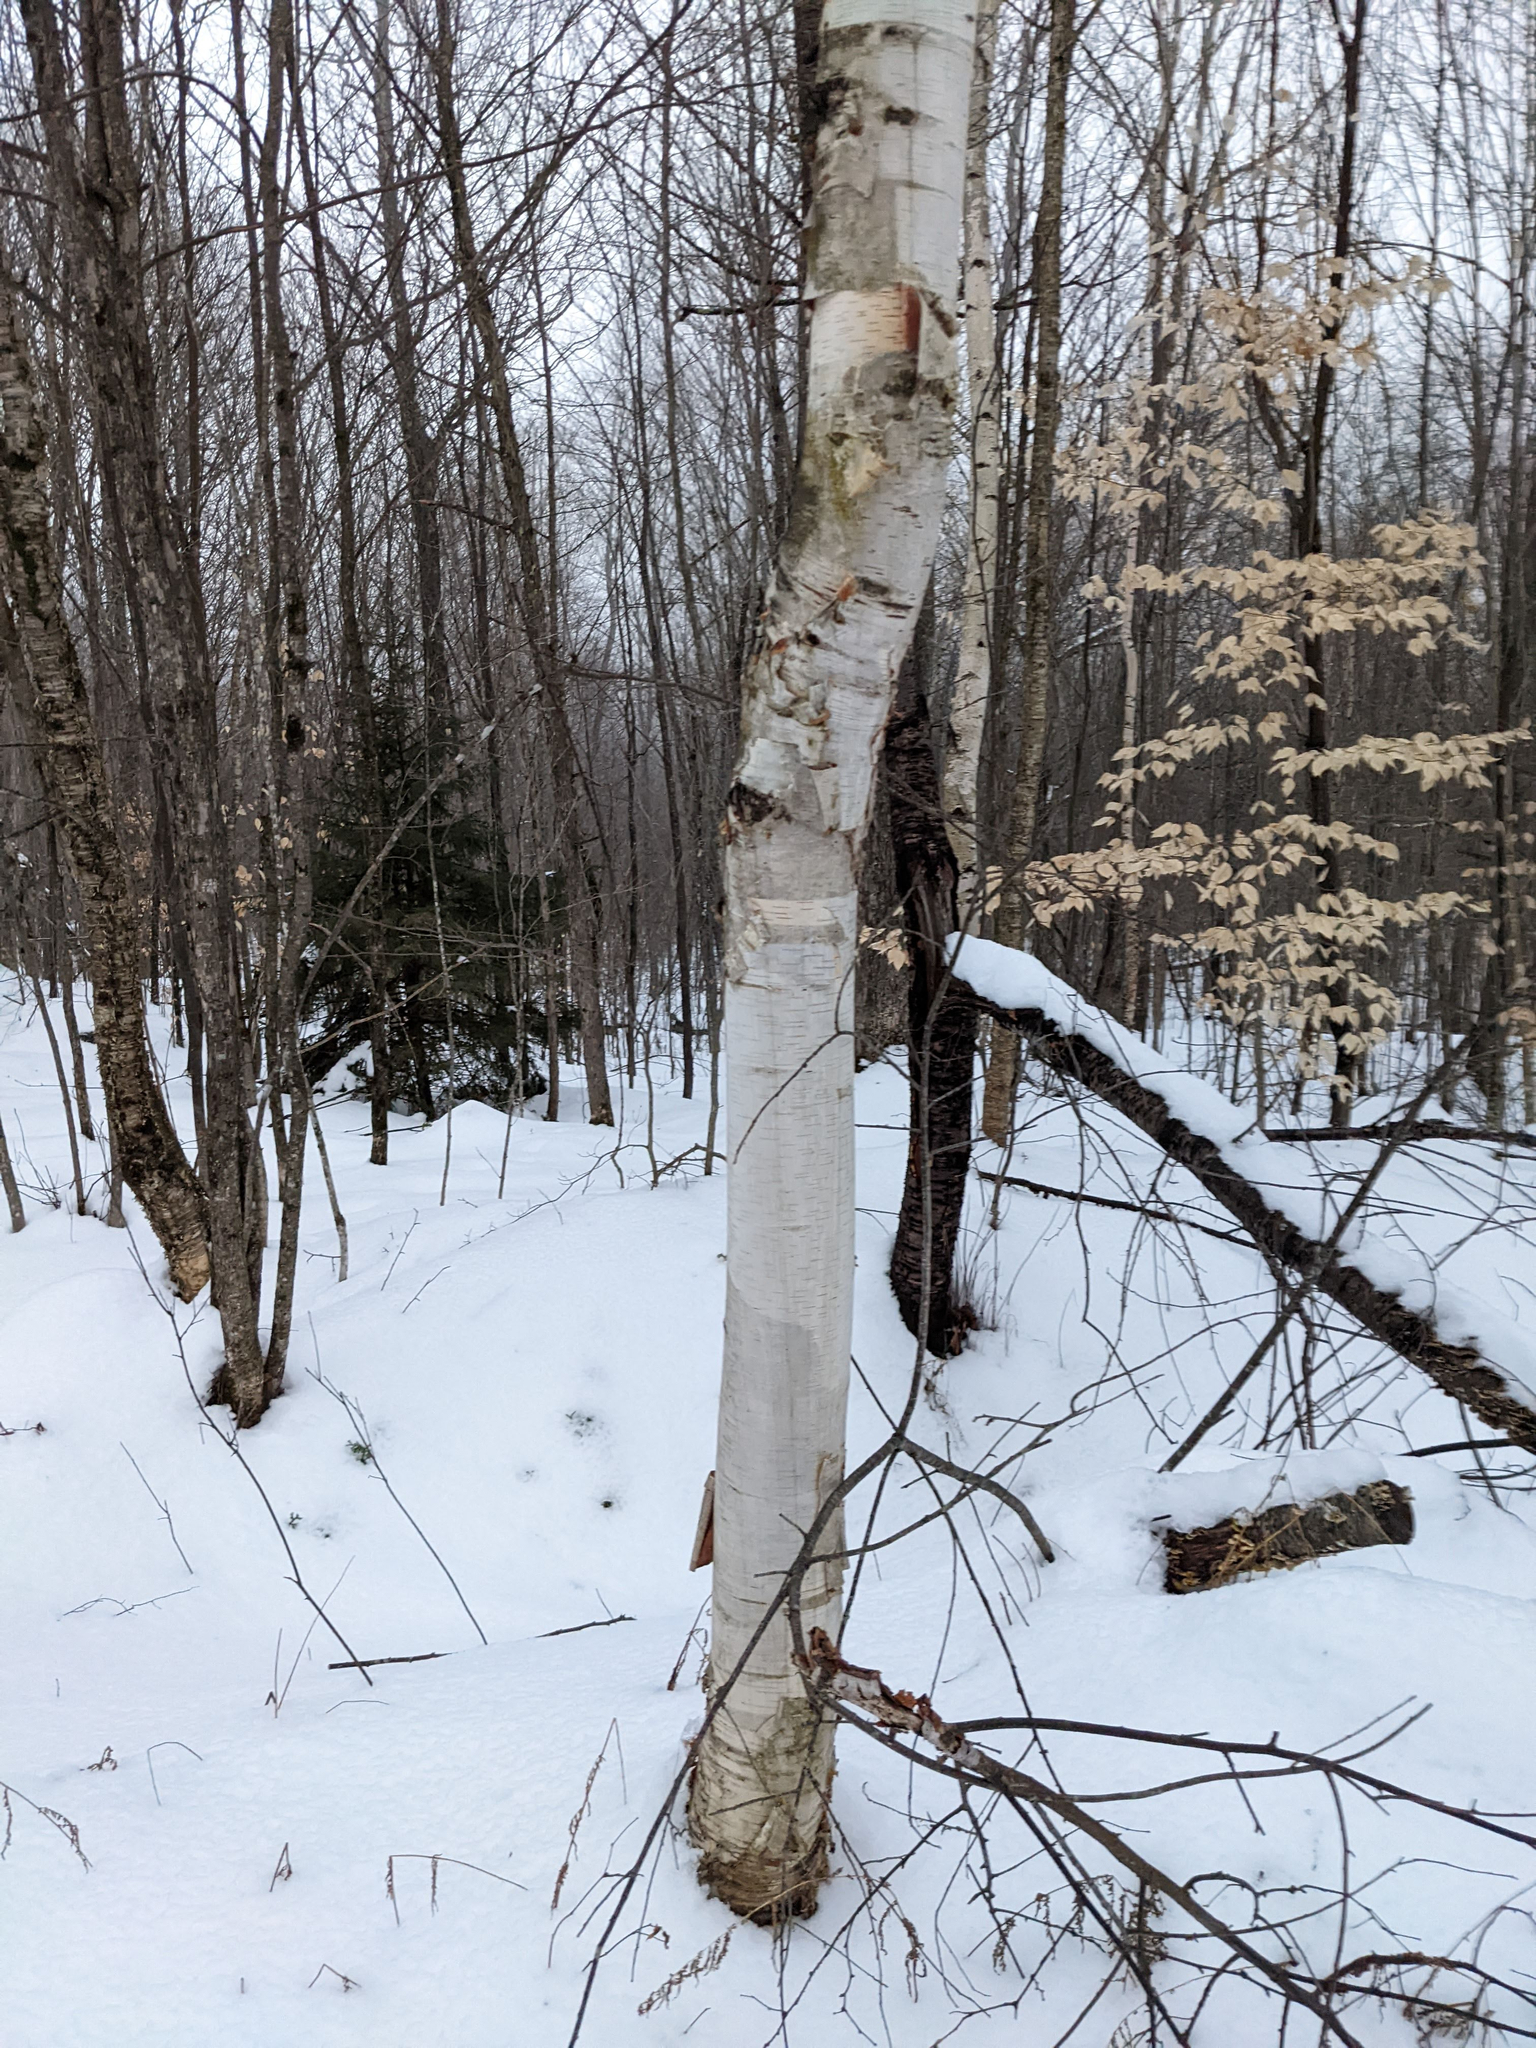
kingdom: Plantae
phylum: Tracheophyta
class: Magnoliopsida
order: Fagales
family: Betulaceae
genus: Betula
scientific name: Betula papyrifera
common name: Paper birch
